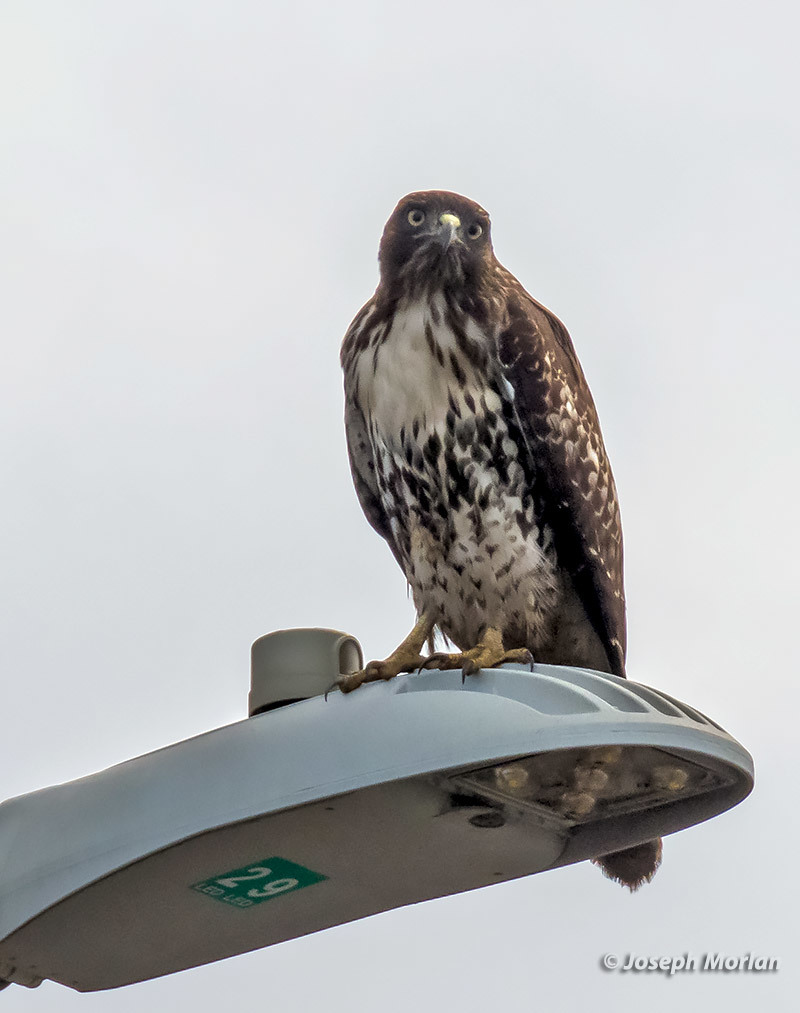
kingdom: Animalia
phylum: Chordata
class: Aves
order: Accipitriformes
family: Accipitridae
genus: Buteo
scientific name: Buteo jamaicensis
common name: Red-tailed hawk
